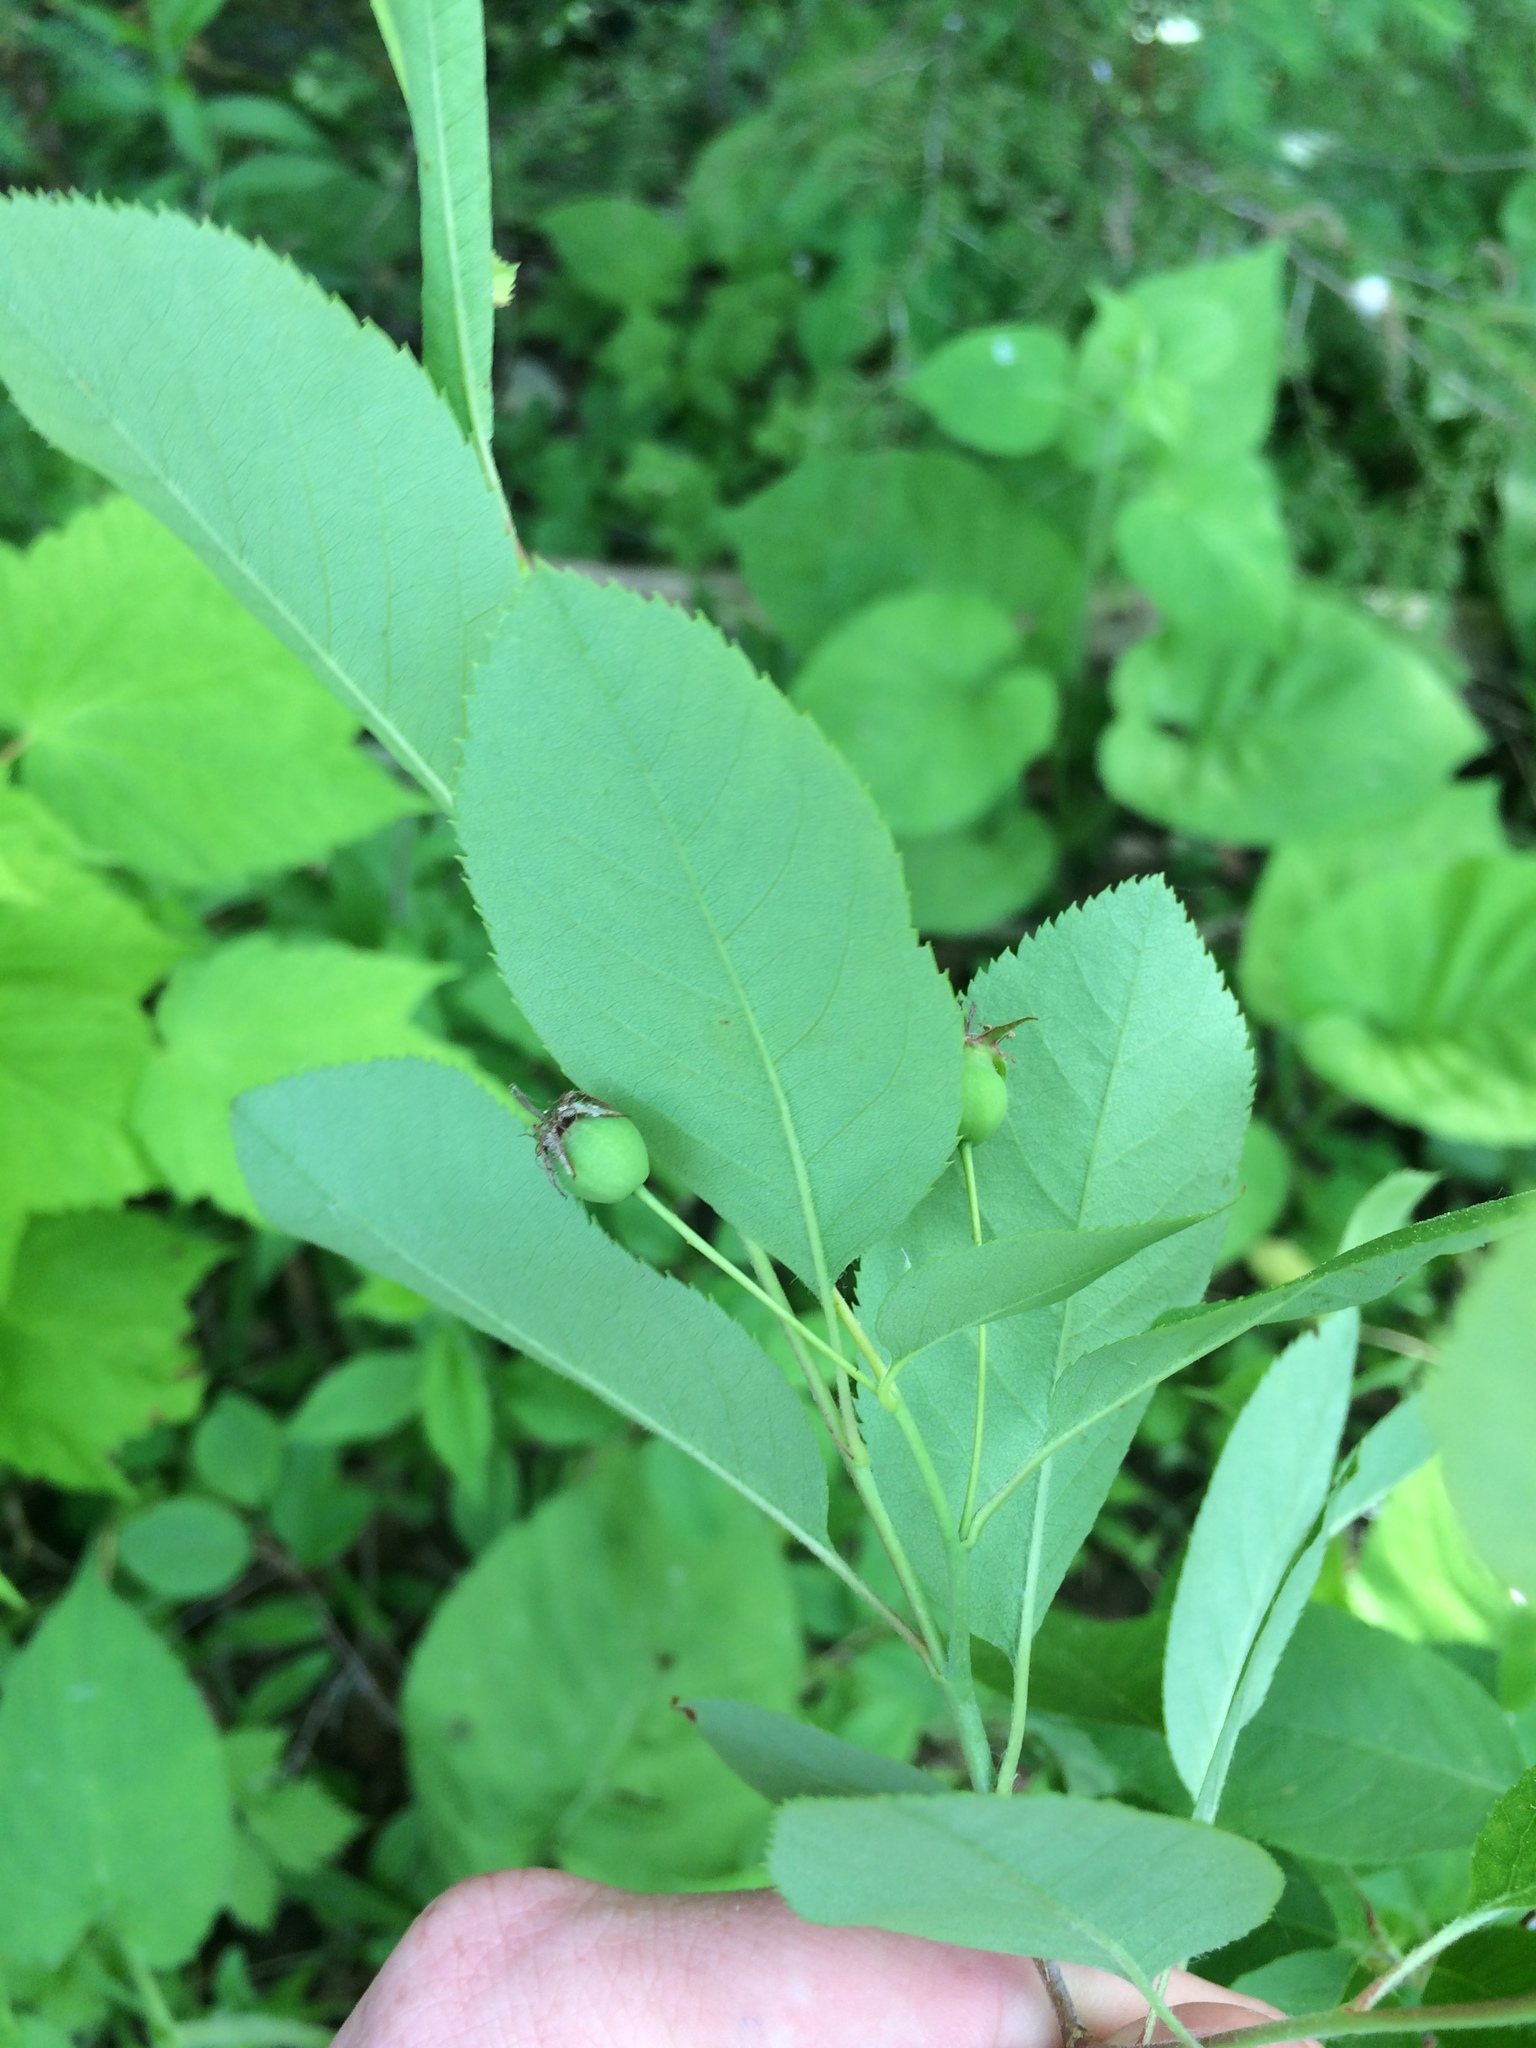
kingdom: Plantae
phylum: Tracheophyta
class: Magnoliopsida
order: Rosales
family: Rosaceae
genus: Amelanchier
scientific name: Amelanchier bartramiana
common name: Mountain serviceberry
